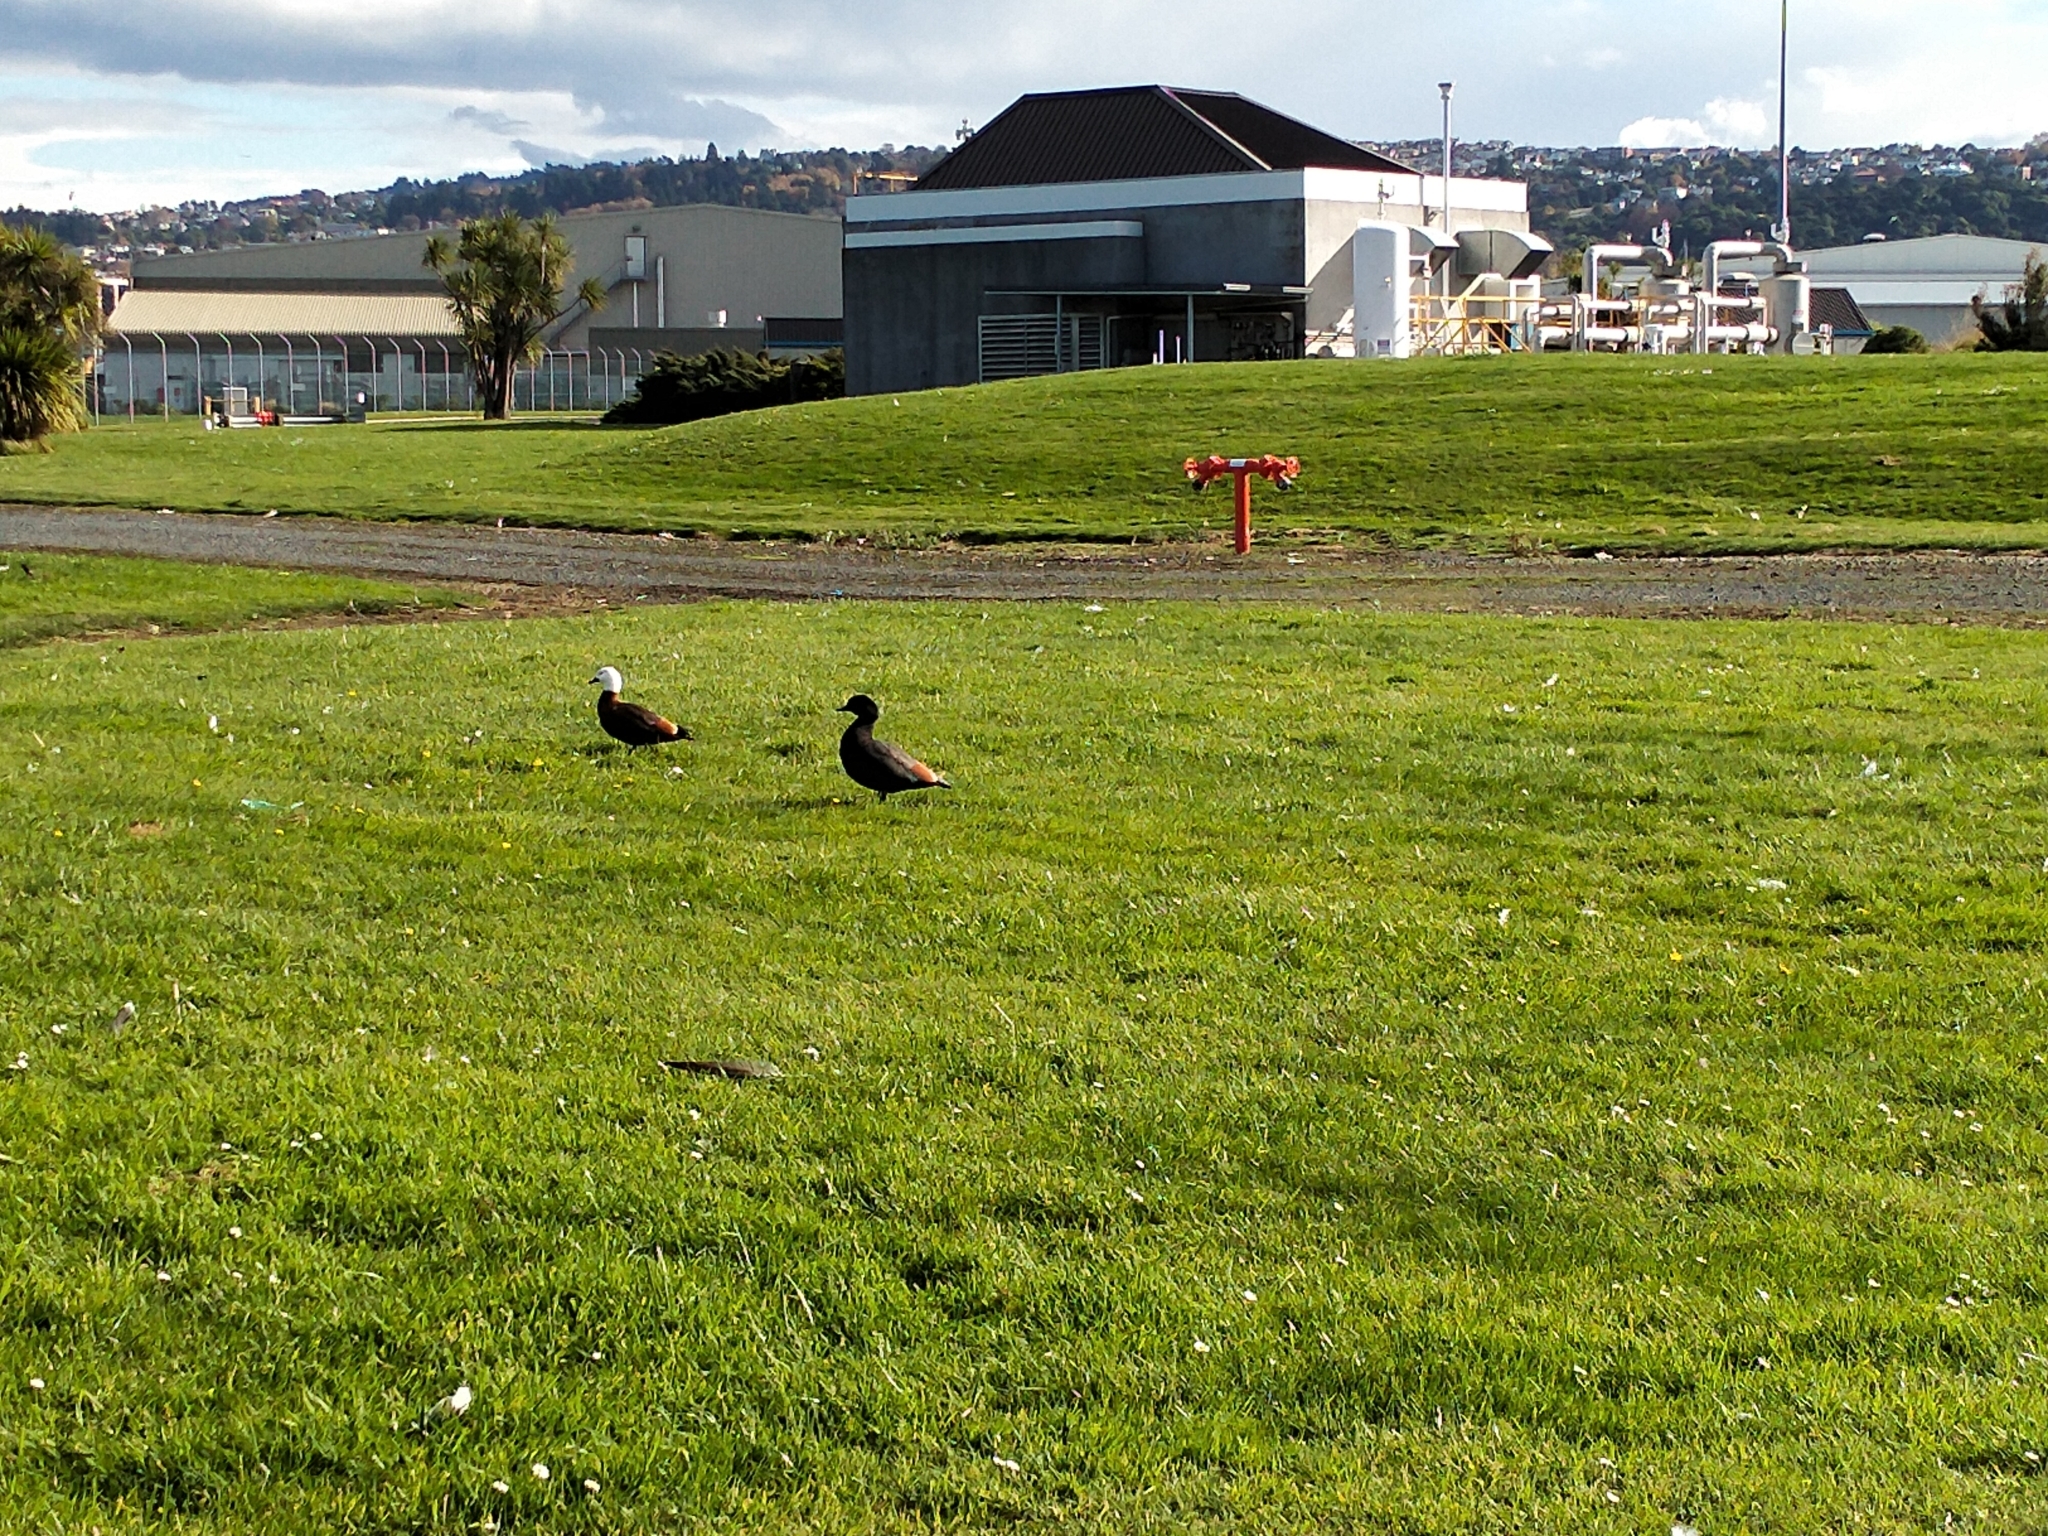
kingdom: Animalia
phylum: Chordata
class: Aves
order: Anseriformes
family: Anatidae
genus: Tadorna
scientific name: Tadorna variegata
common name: Paradise shelduck
